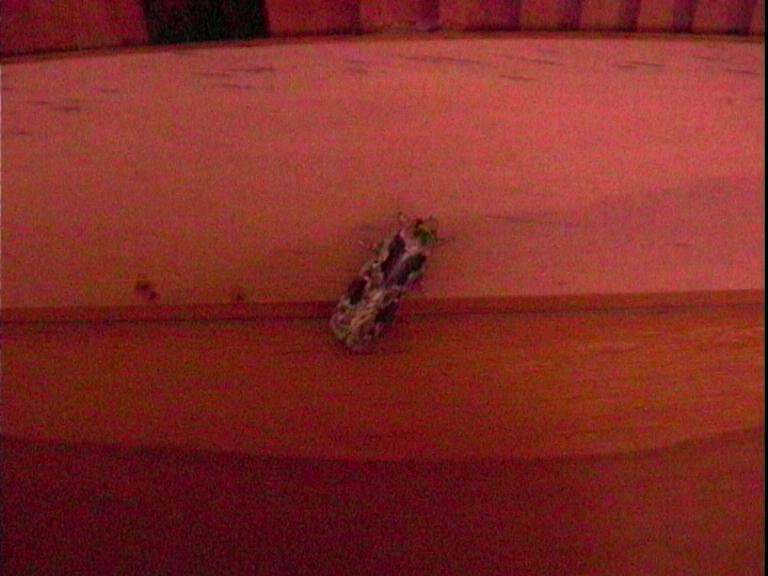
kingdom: Animalia
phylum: Arthropoda
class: Insecta
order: Lepidoptera
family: Oecophoridae
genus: Barea
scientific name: Barea consignatella
